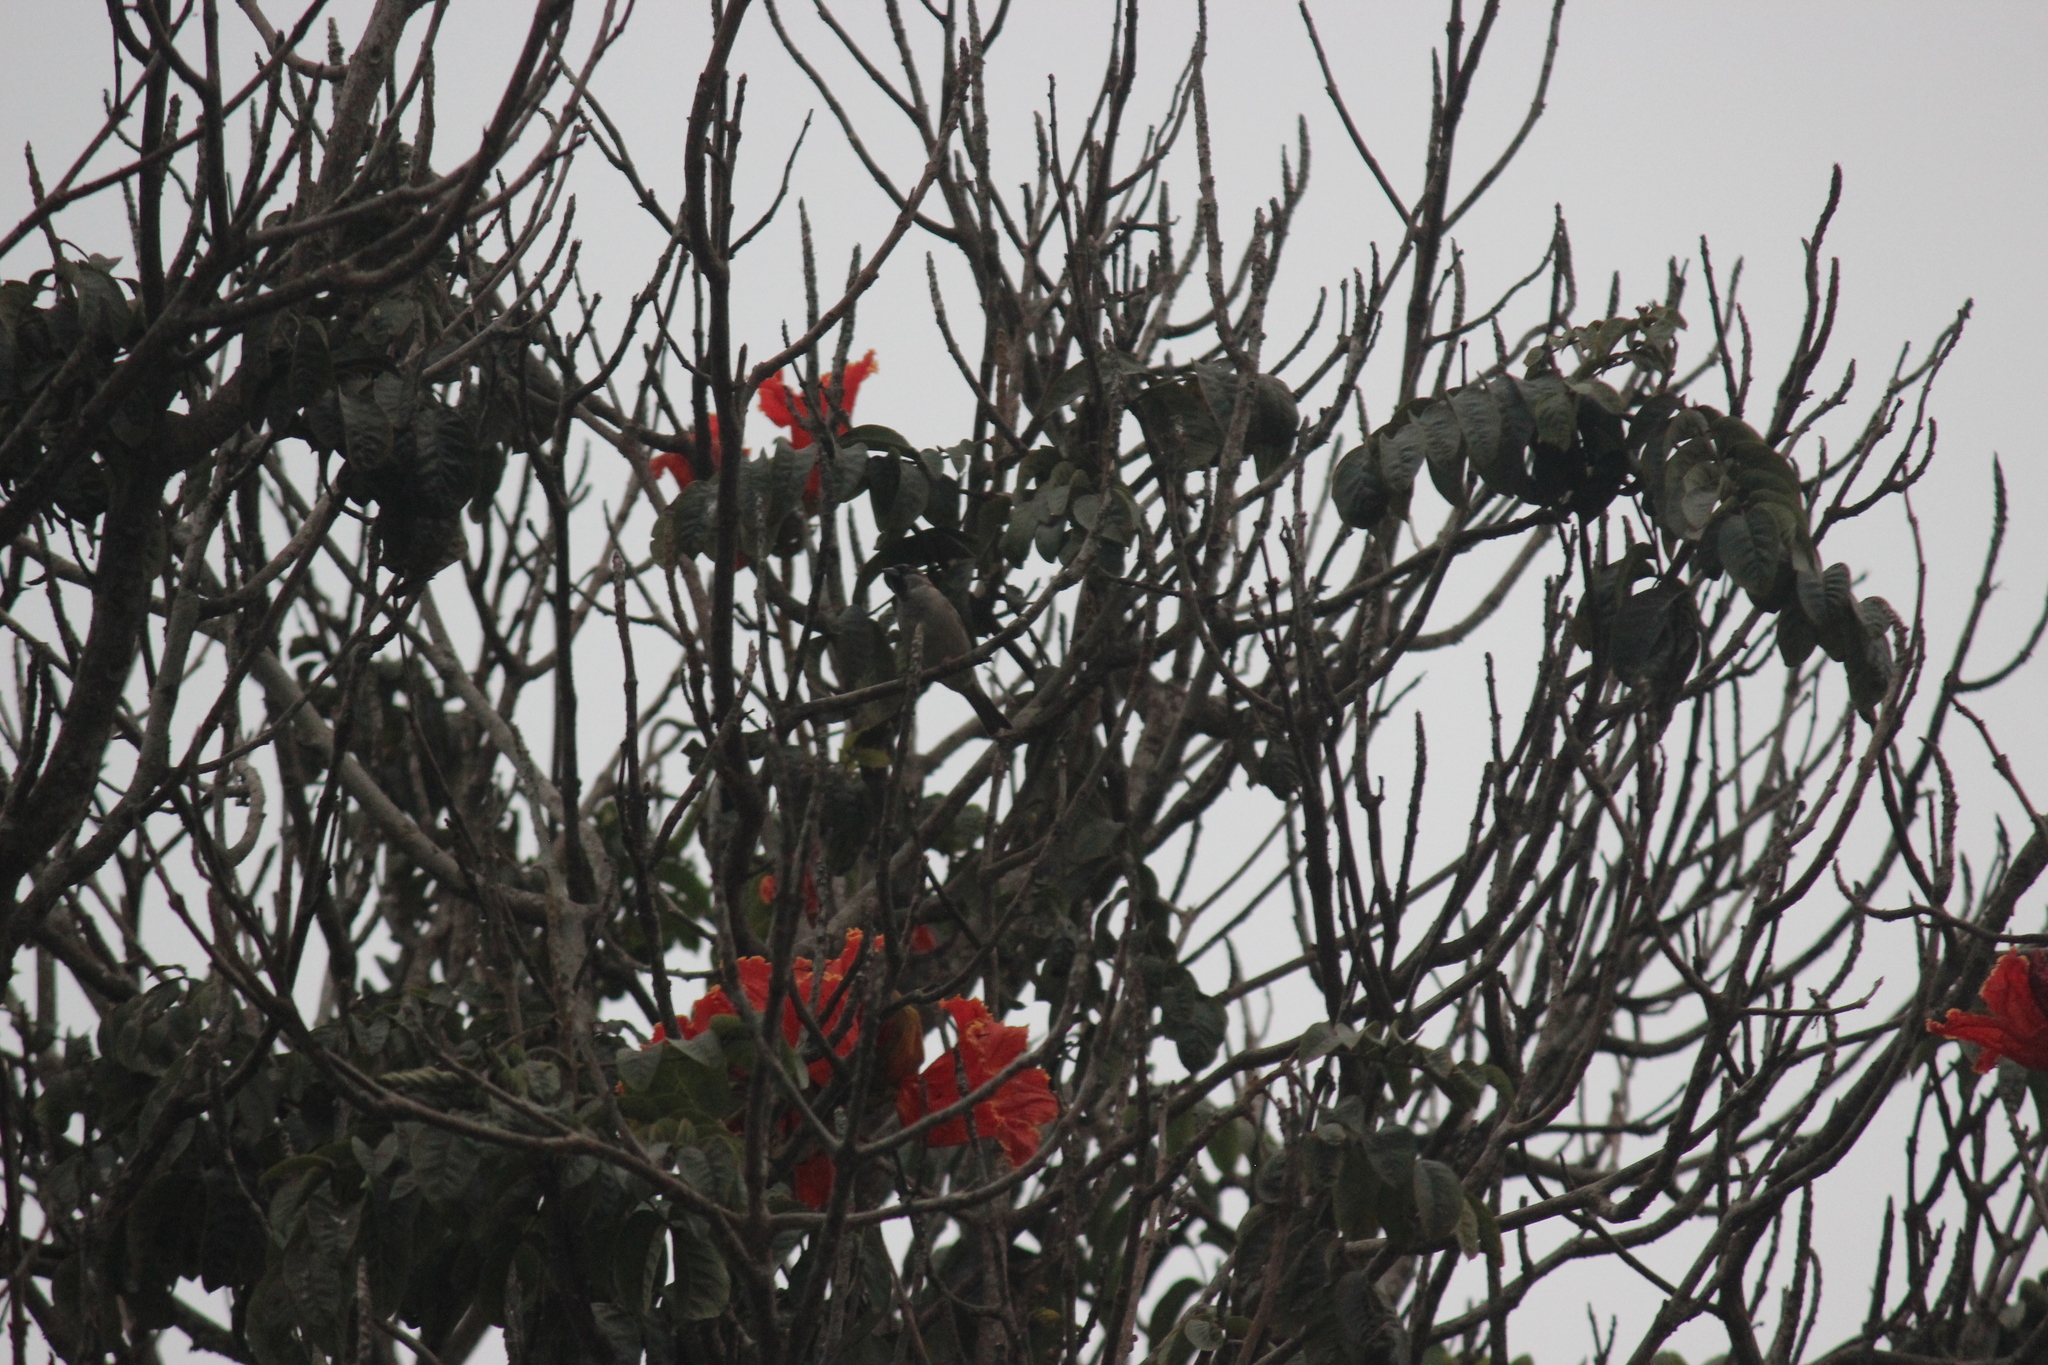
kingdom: Animalia
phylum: Chordata
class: Aves
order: Passeriformes
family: Passeridae
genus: Passer
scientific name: Passer domesticus
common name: House sparrow
